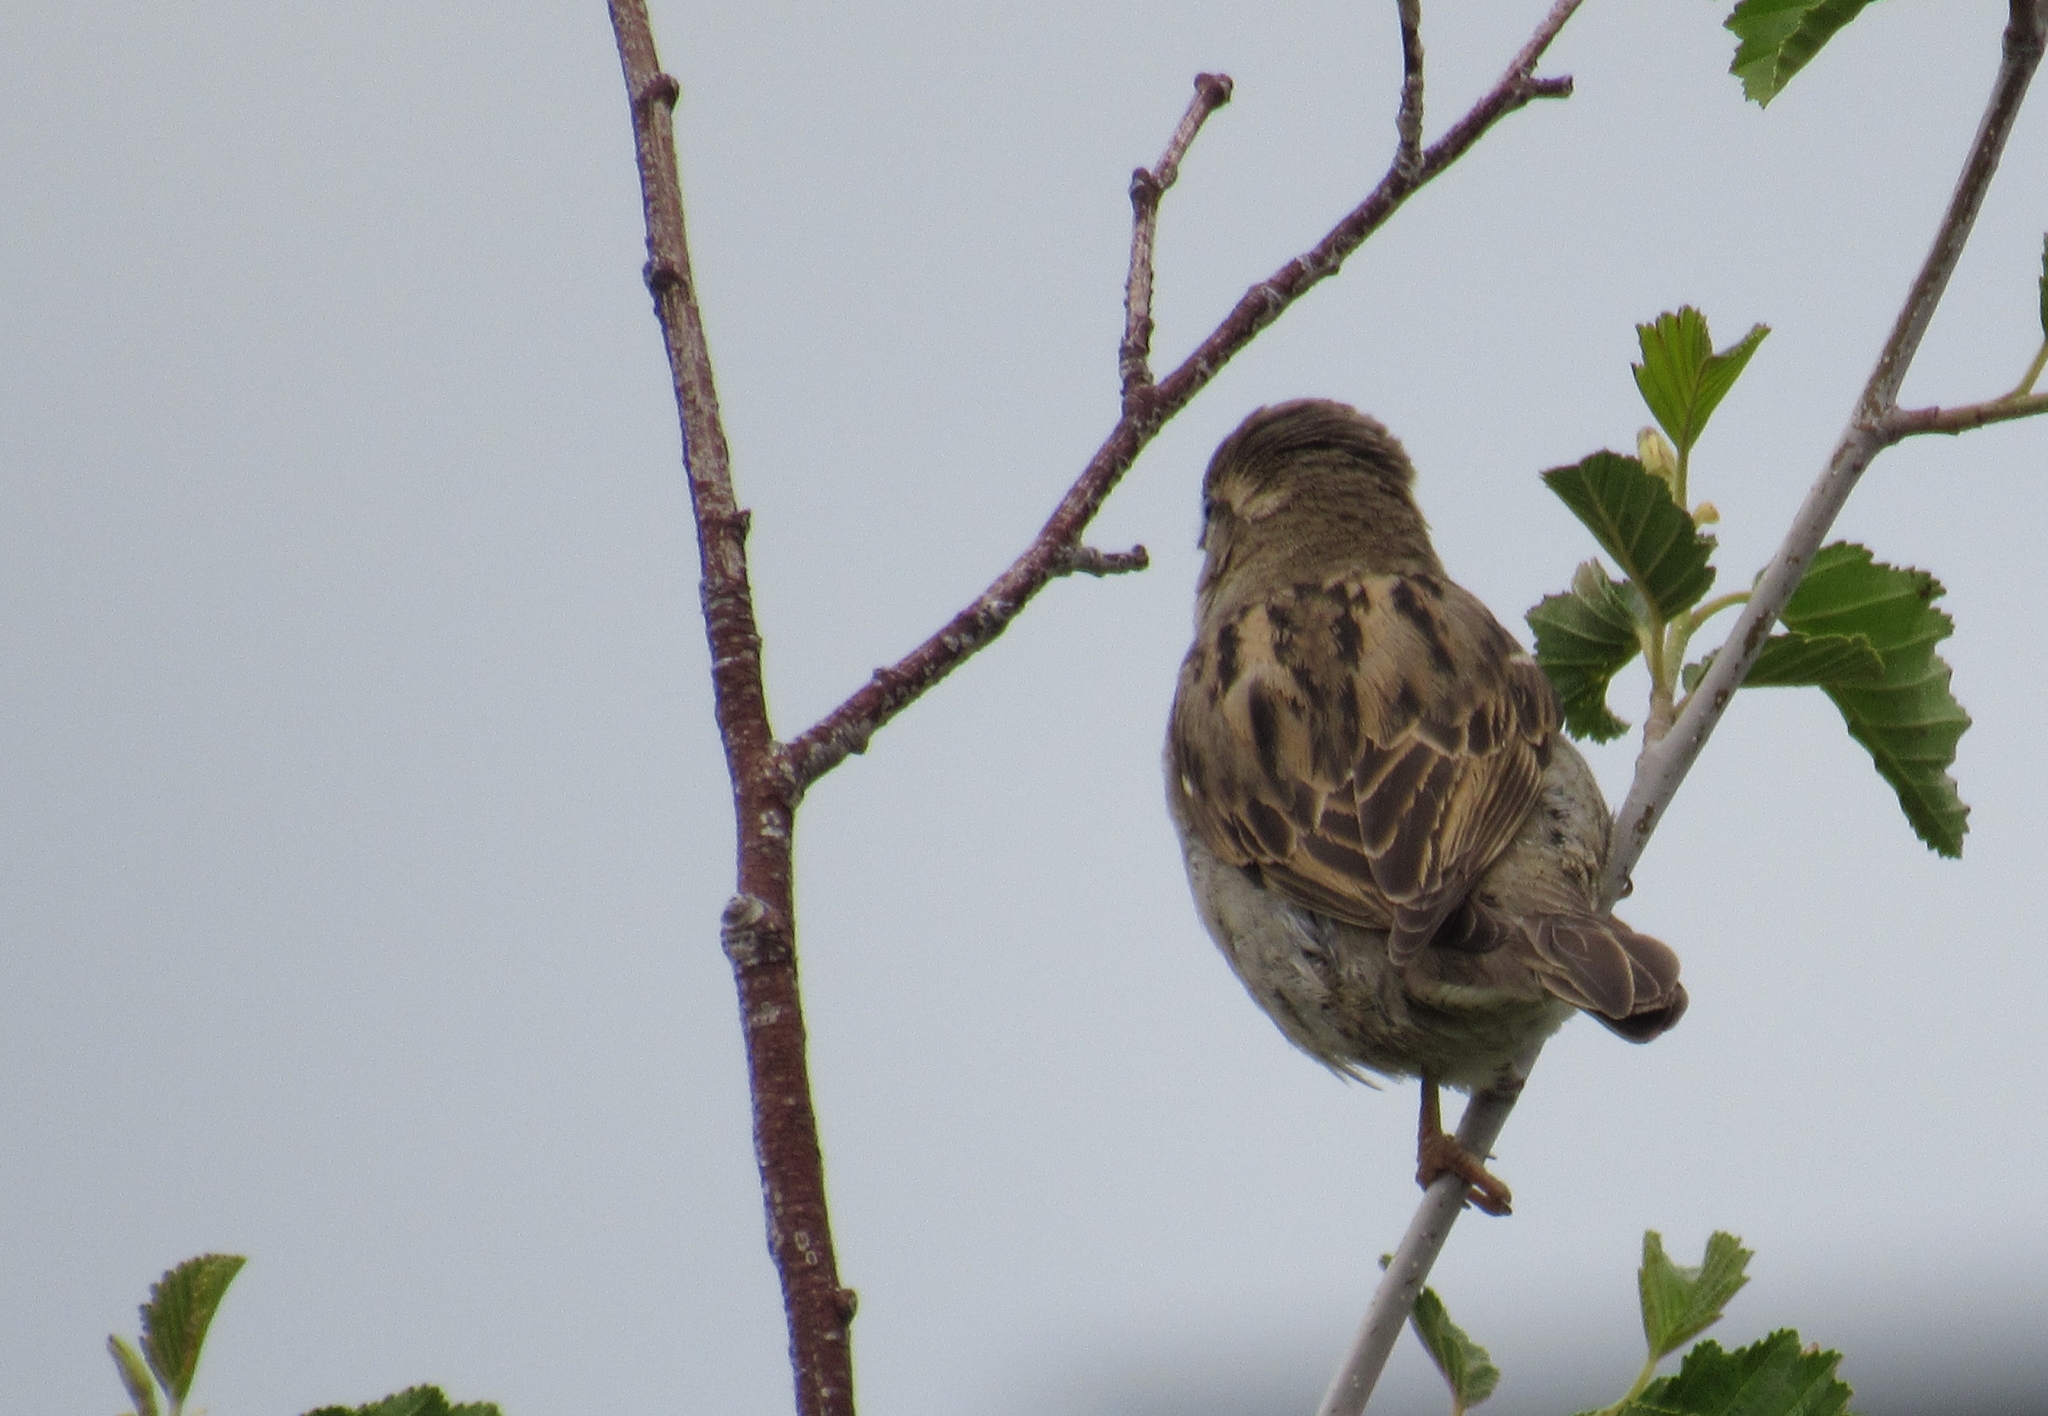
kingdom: Animalia
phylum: Chordata
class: Aves
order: Passeriformes
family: Passeridae
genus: Passer
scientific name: Passer domesticus
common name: House sparrow
